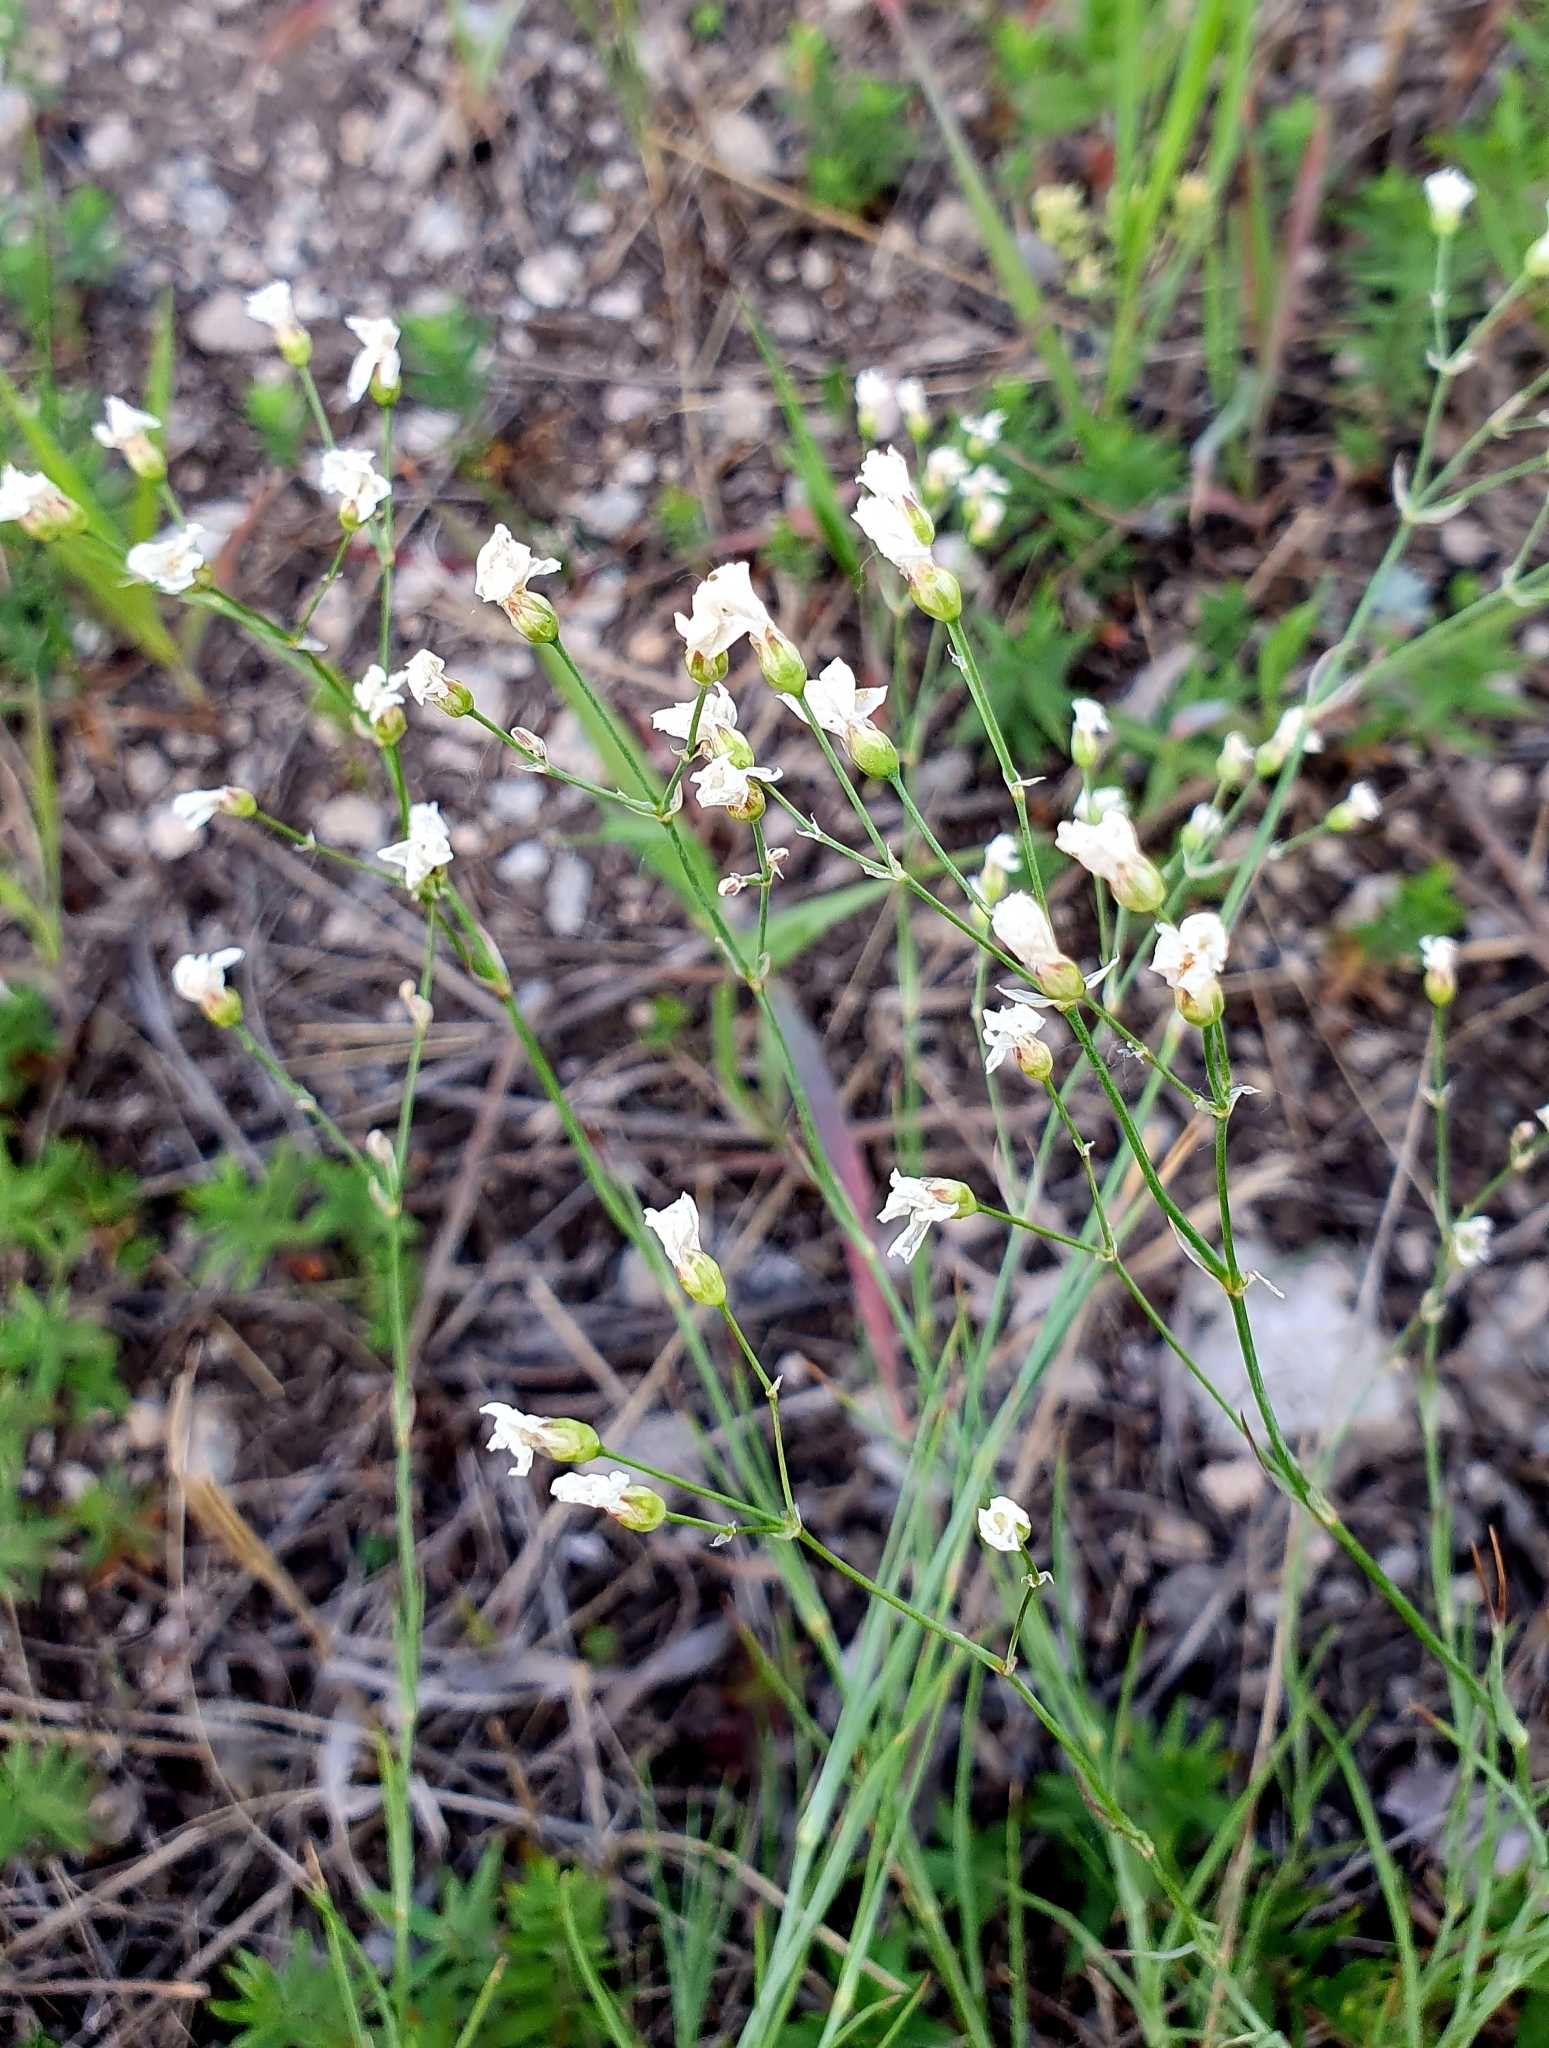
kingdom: Plantae
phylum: Tracheophyta
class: Magnoliopsida
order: Caryophyllales
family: Caryophyllaceae
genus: Eremogone
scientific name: Eremogone saxatilis
